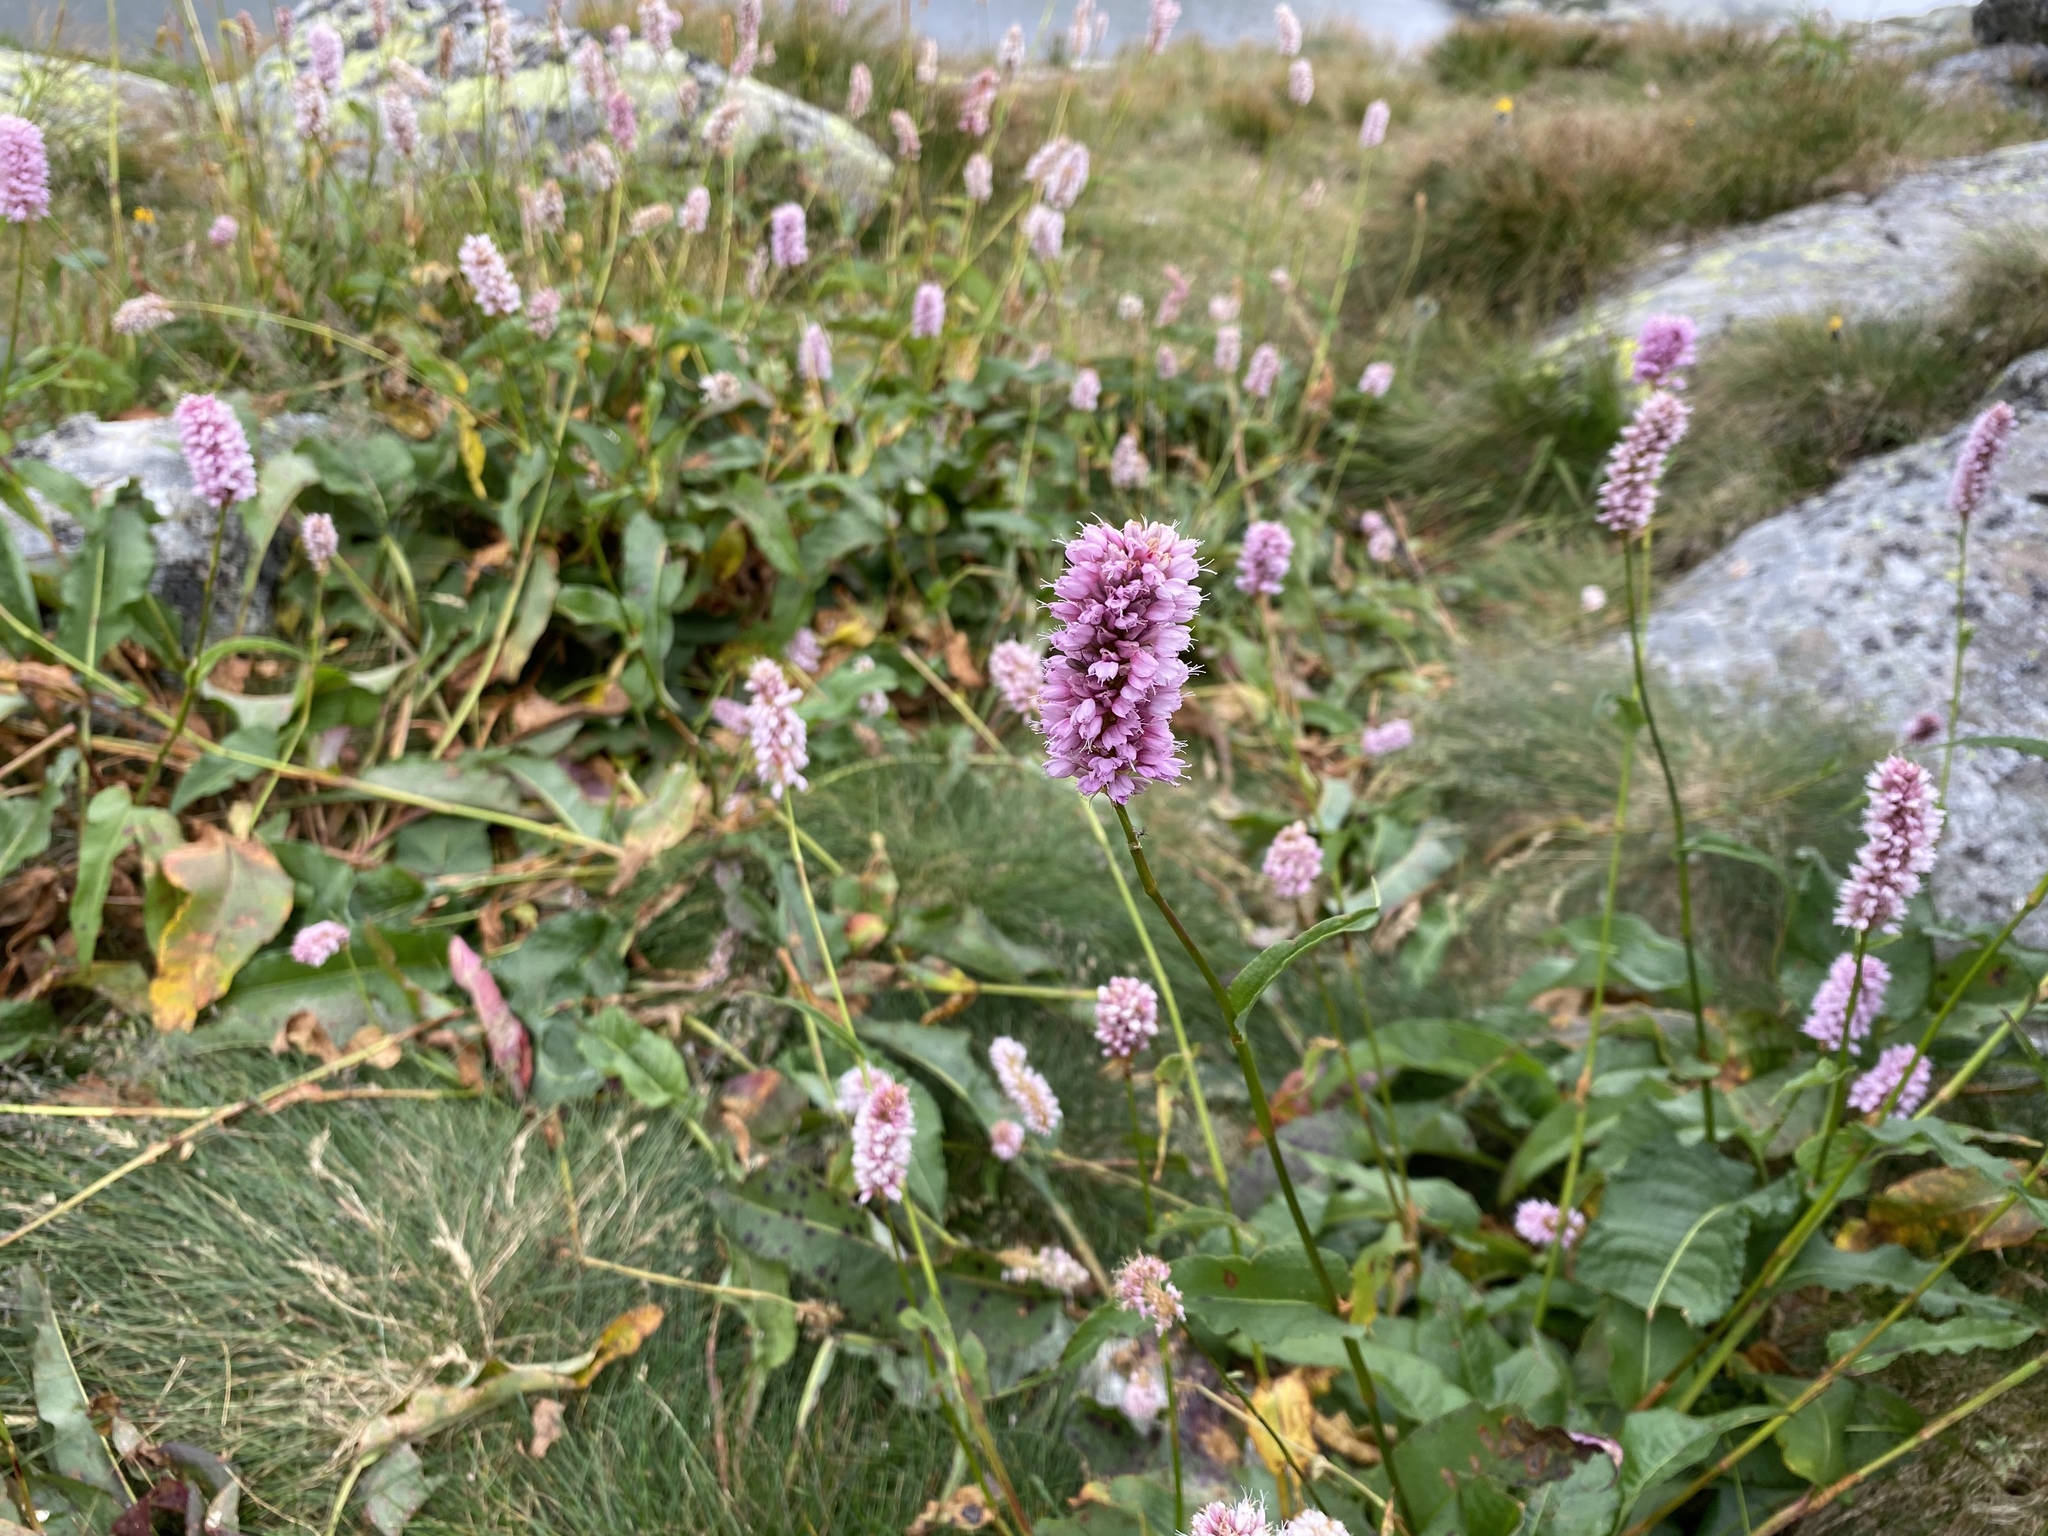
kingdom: Plantae
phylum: Tracheophyta
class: Magnoliopsida
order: Caryophyllales
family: Polygonaceae
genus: Bistorta
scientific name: Bistorta officinalis
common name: Common bistort
